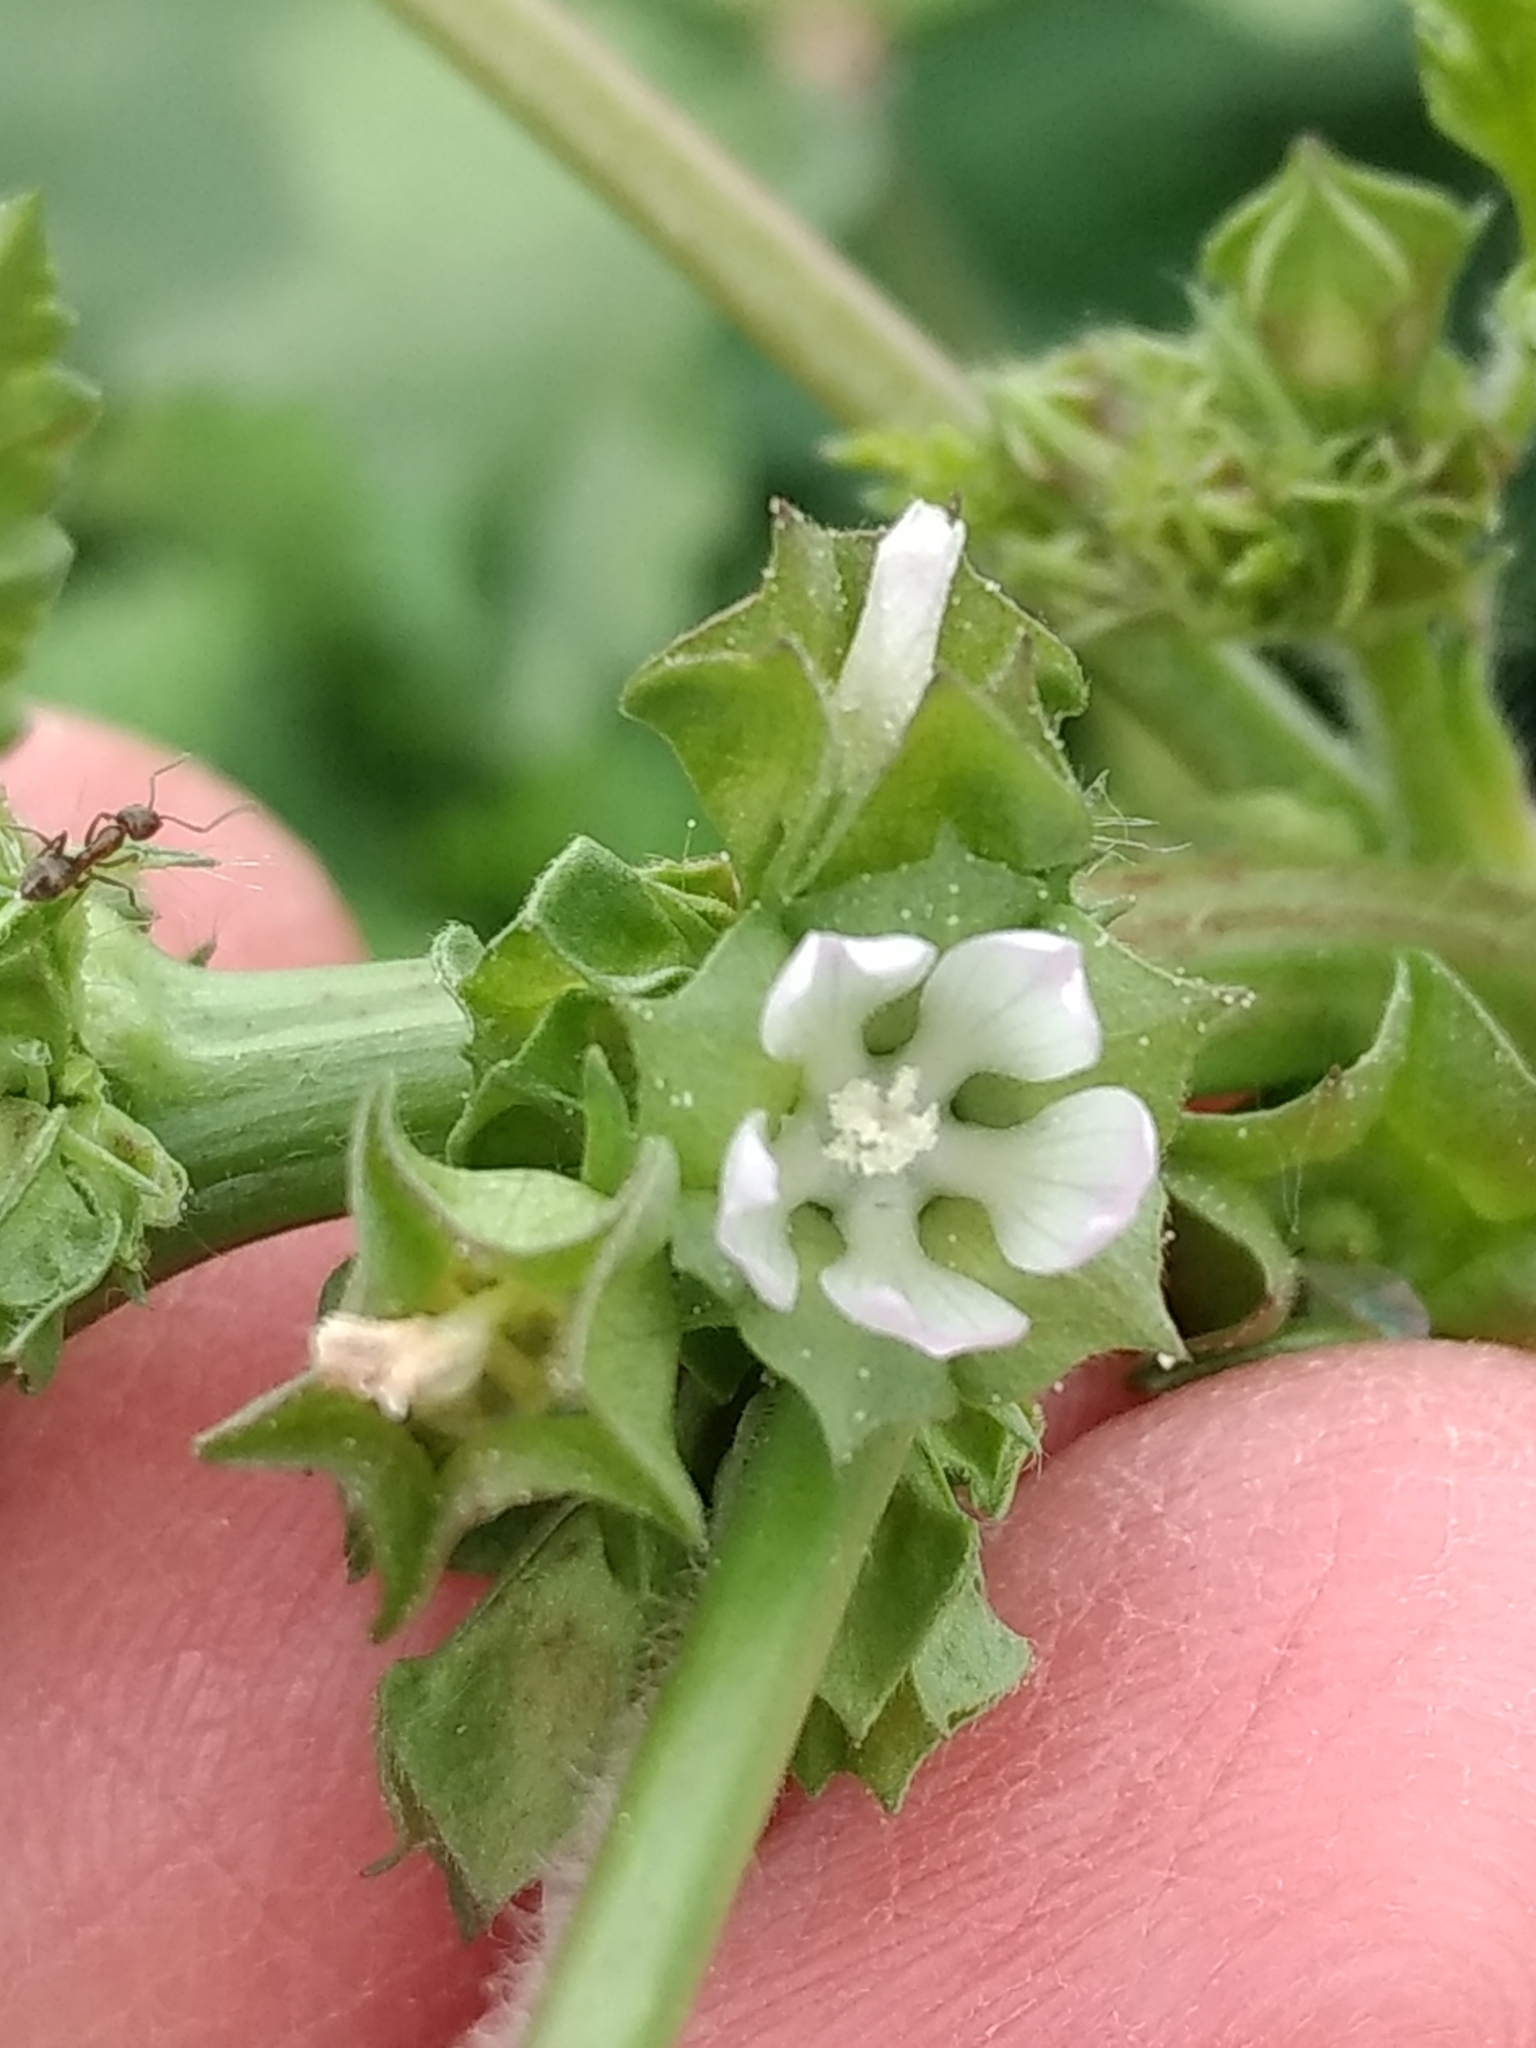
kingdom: Plantae
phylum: Tracheophyta
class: Magnoliopsida
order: Malvales
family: Malvaceae
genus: Malva
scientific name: Malva parviflora
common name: Least mallow
